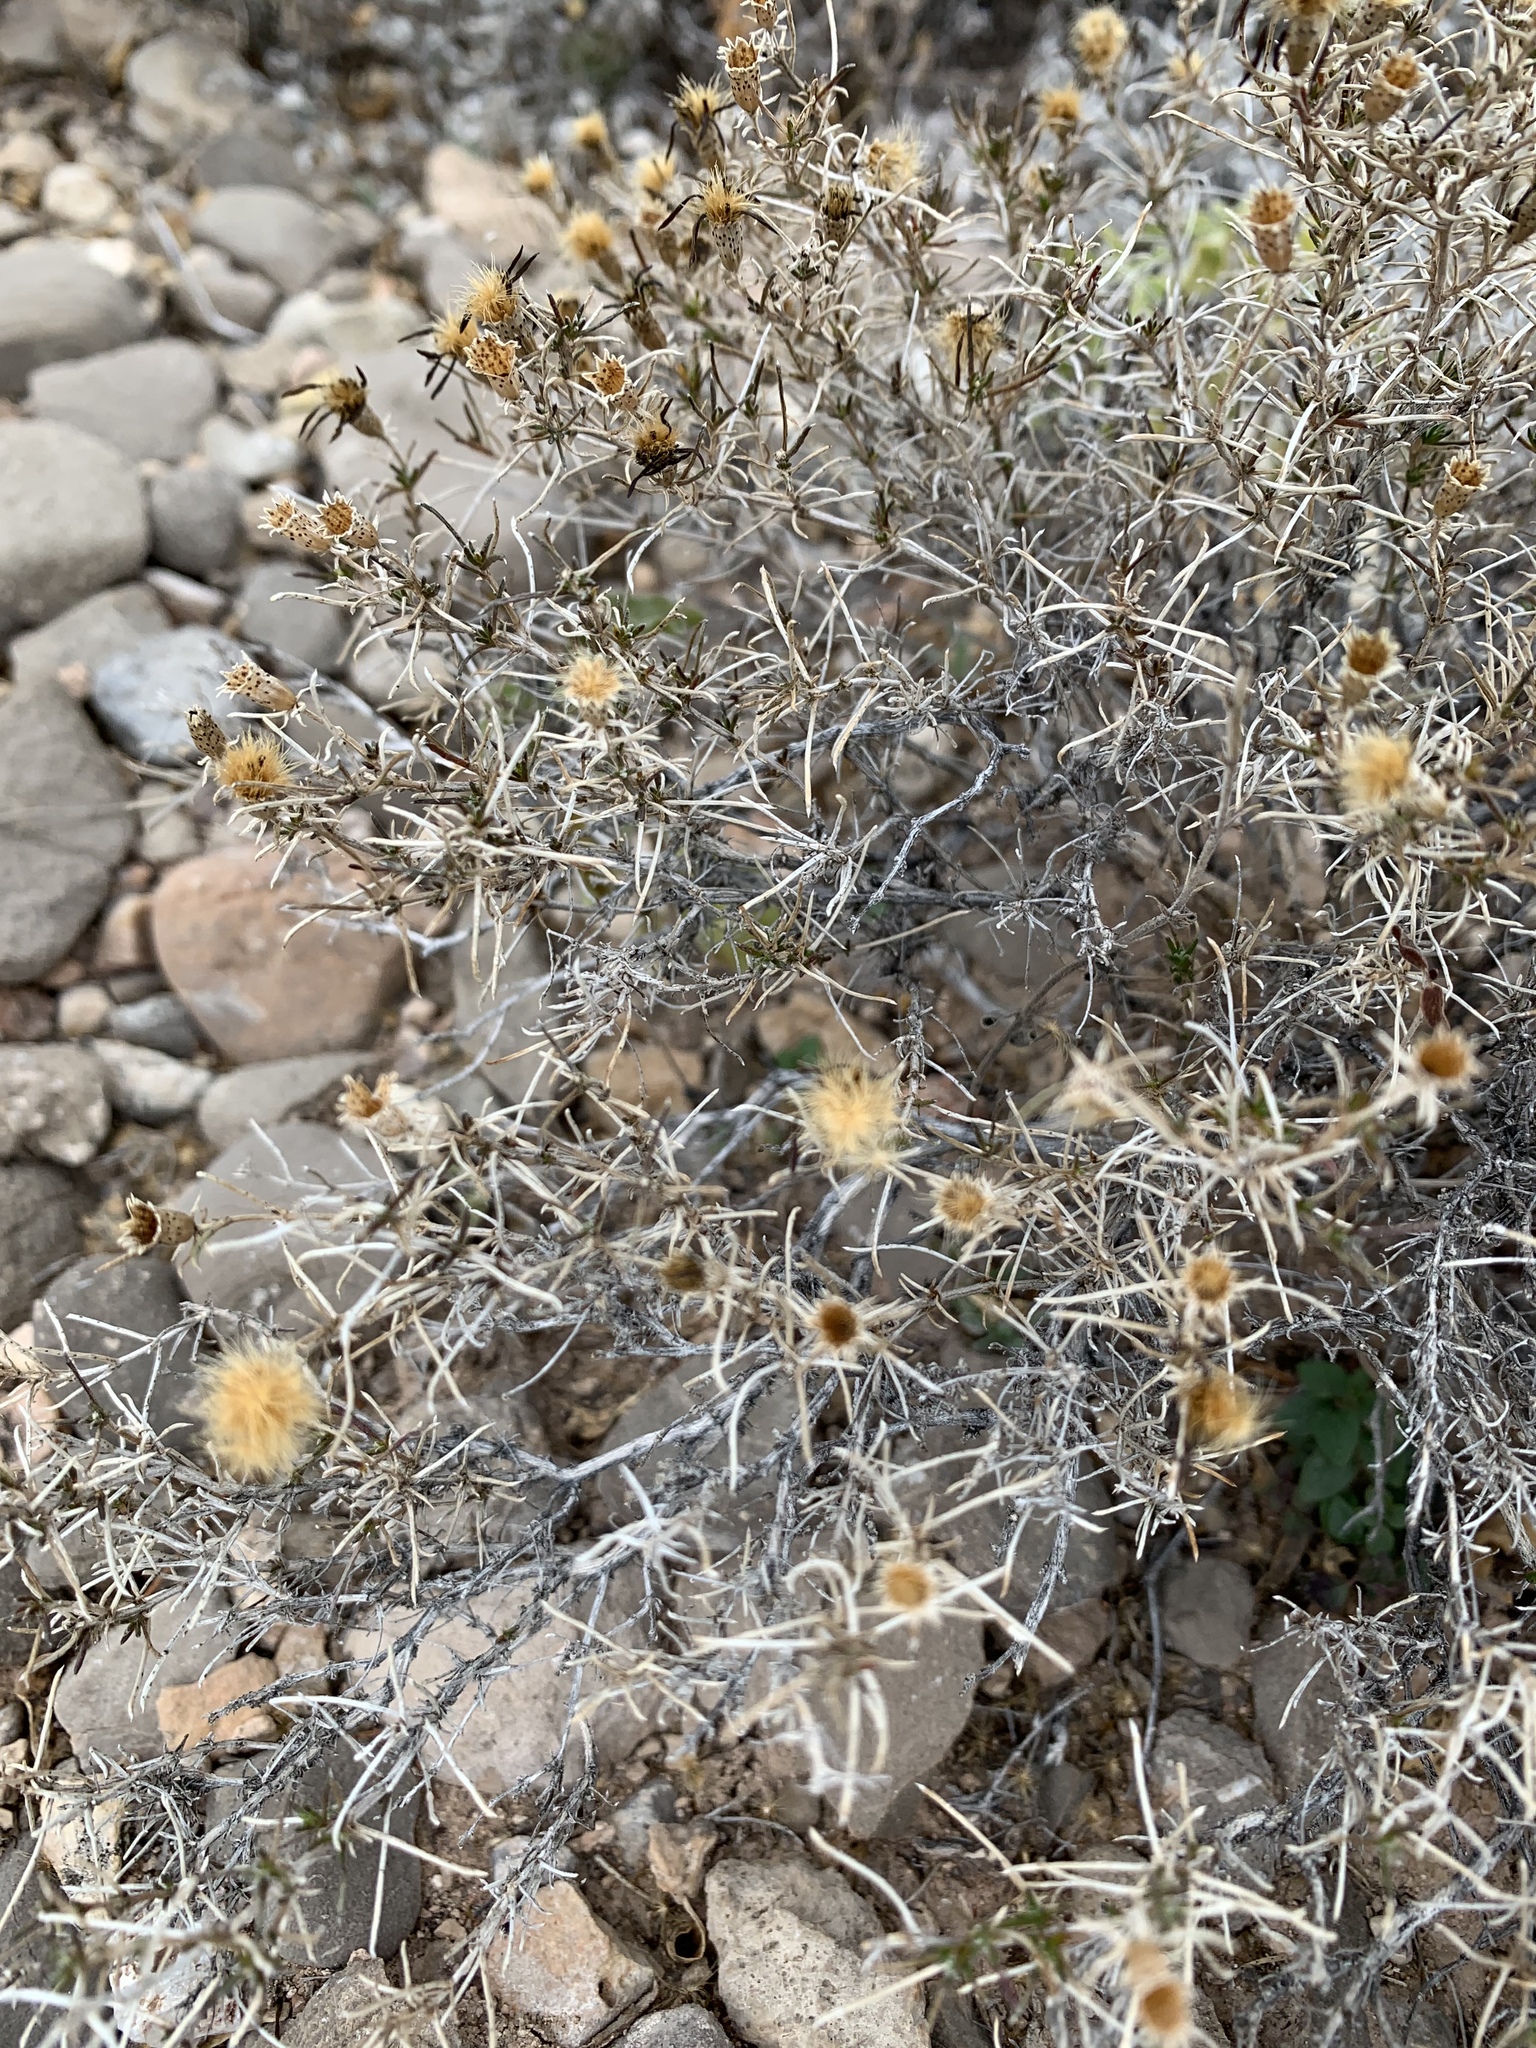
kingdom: Plantae
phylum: Tracheophyta
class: Magnoliopsida
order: Asterales
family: Asteraceae
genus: Thymophylla
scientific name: Thymophylla acerosa
